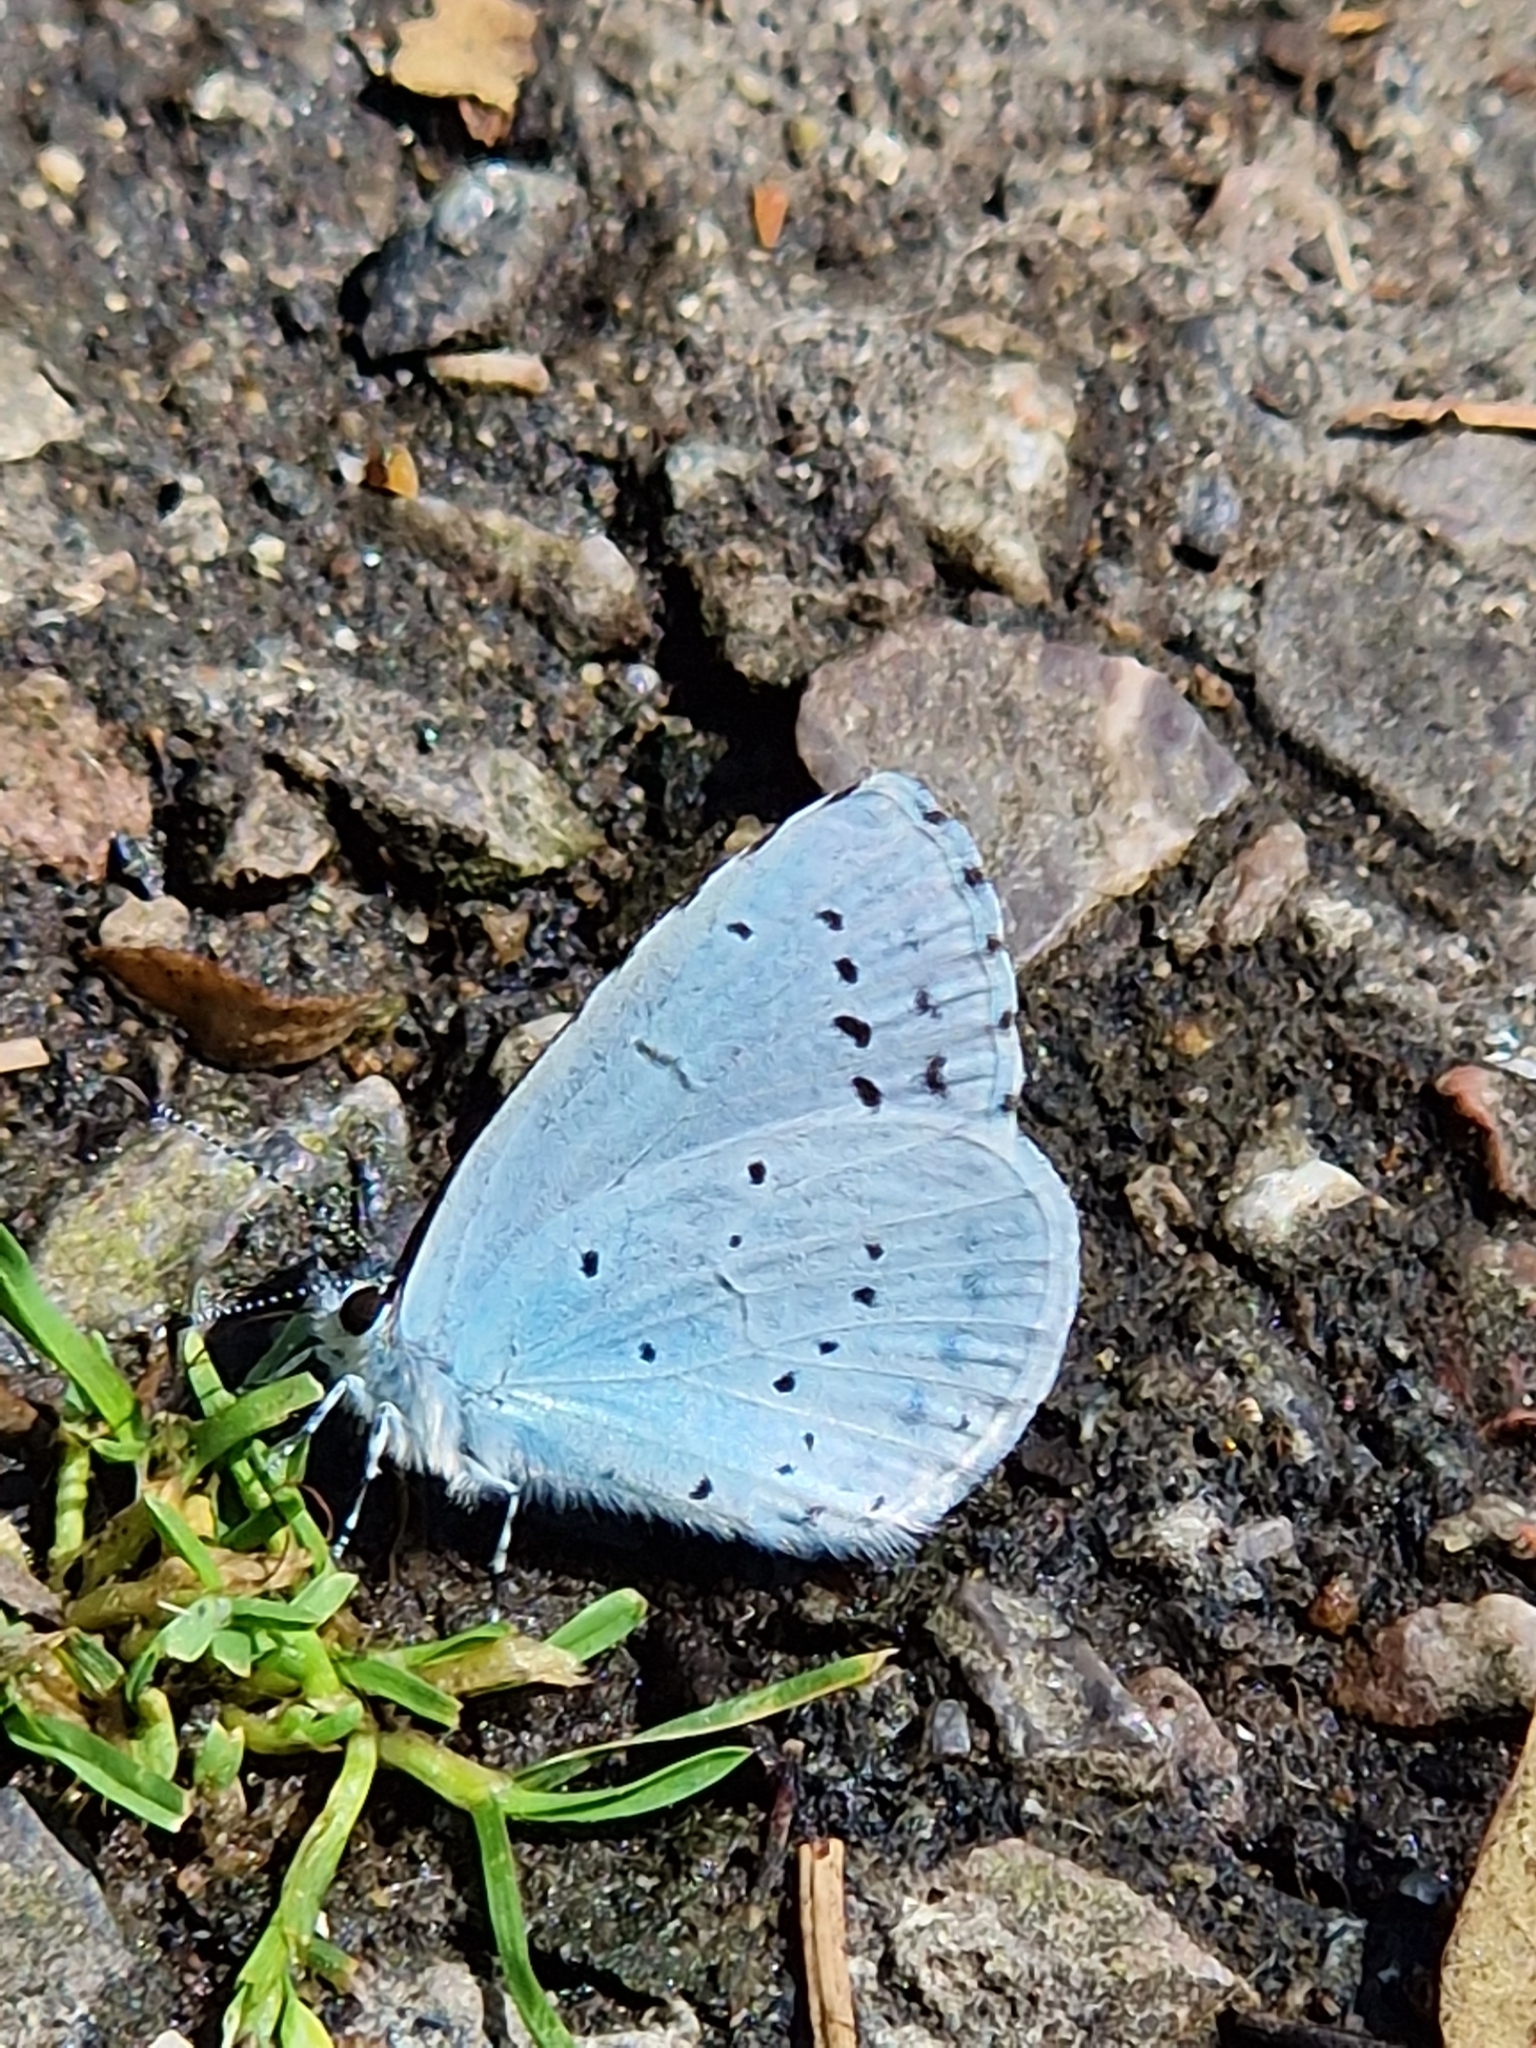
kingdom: Animalia
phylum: Arthropoda
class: Insecta
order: Lepidoptera
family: Lycaenidae
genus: Celastrina
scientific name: Celastrina argiolus
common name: Holly blue
